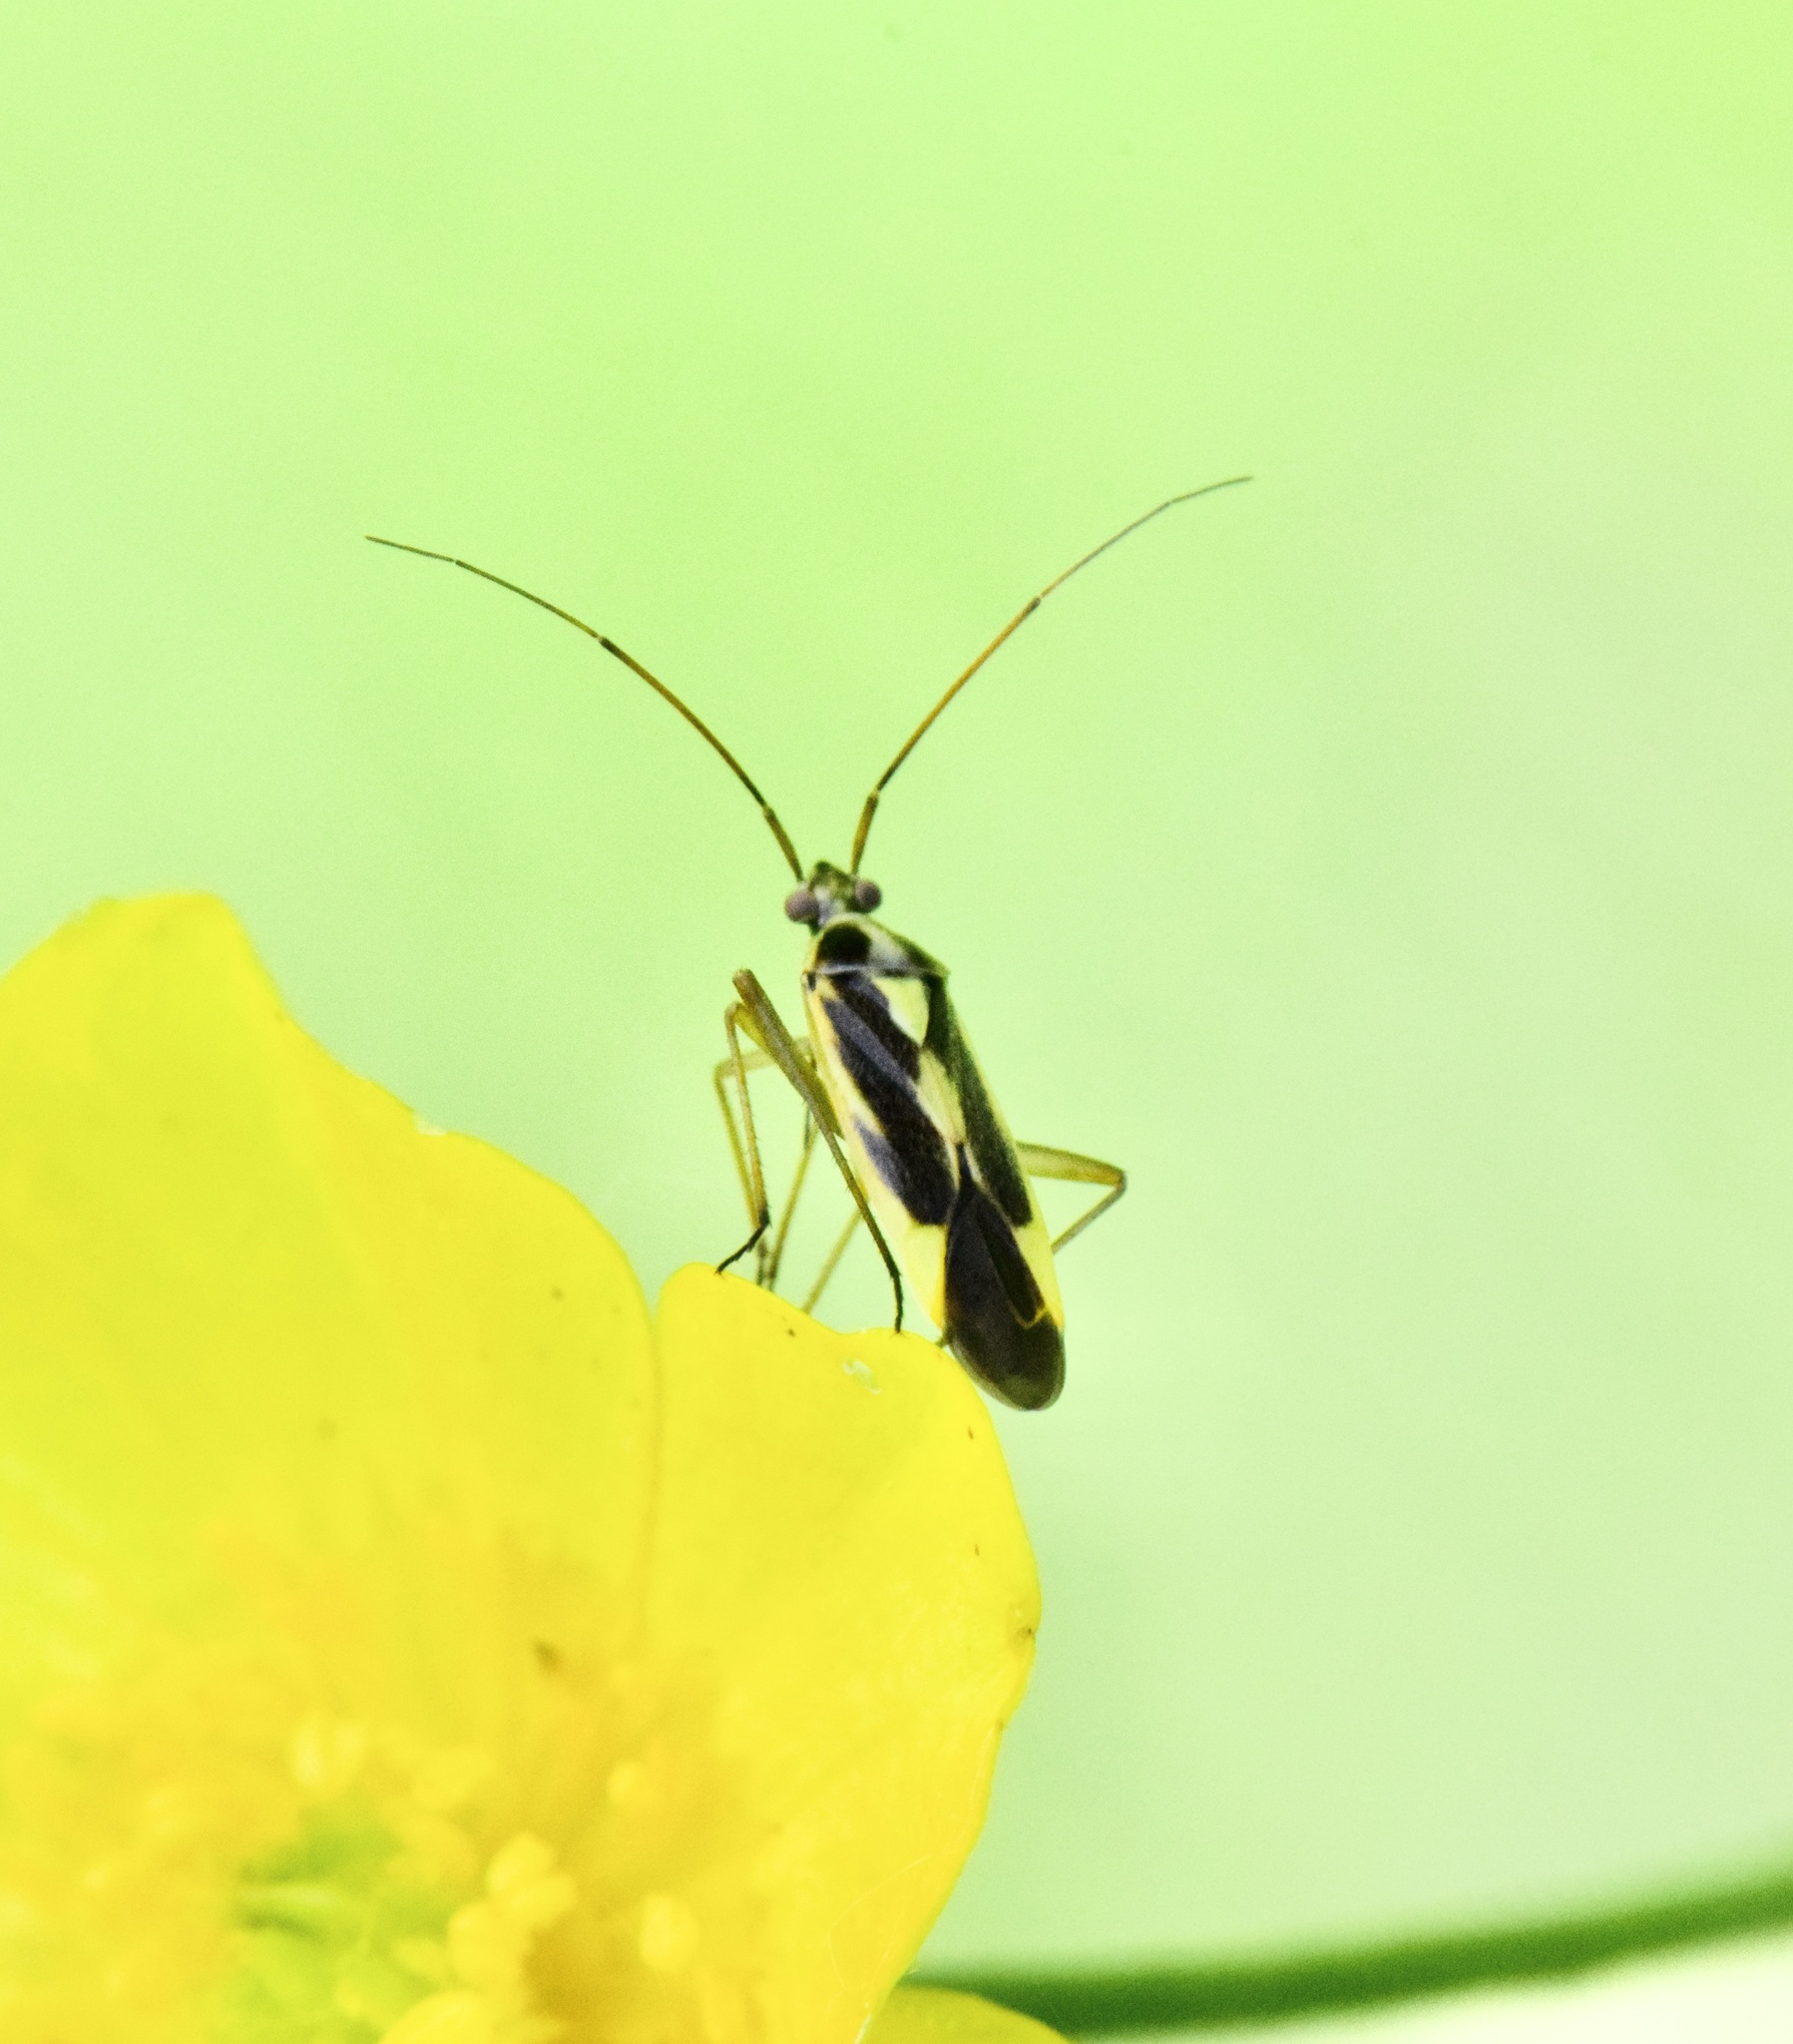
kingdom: Animalia
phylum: Arthropoda
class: Insecta
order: Hemiptera
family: Miridae
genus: Stenotus
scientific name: Stenotus binotatus
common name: Plant bug
